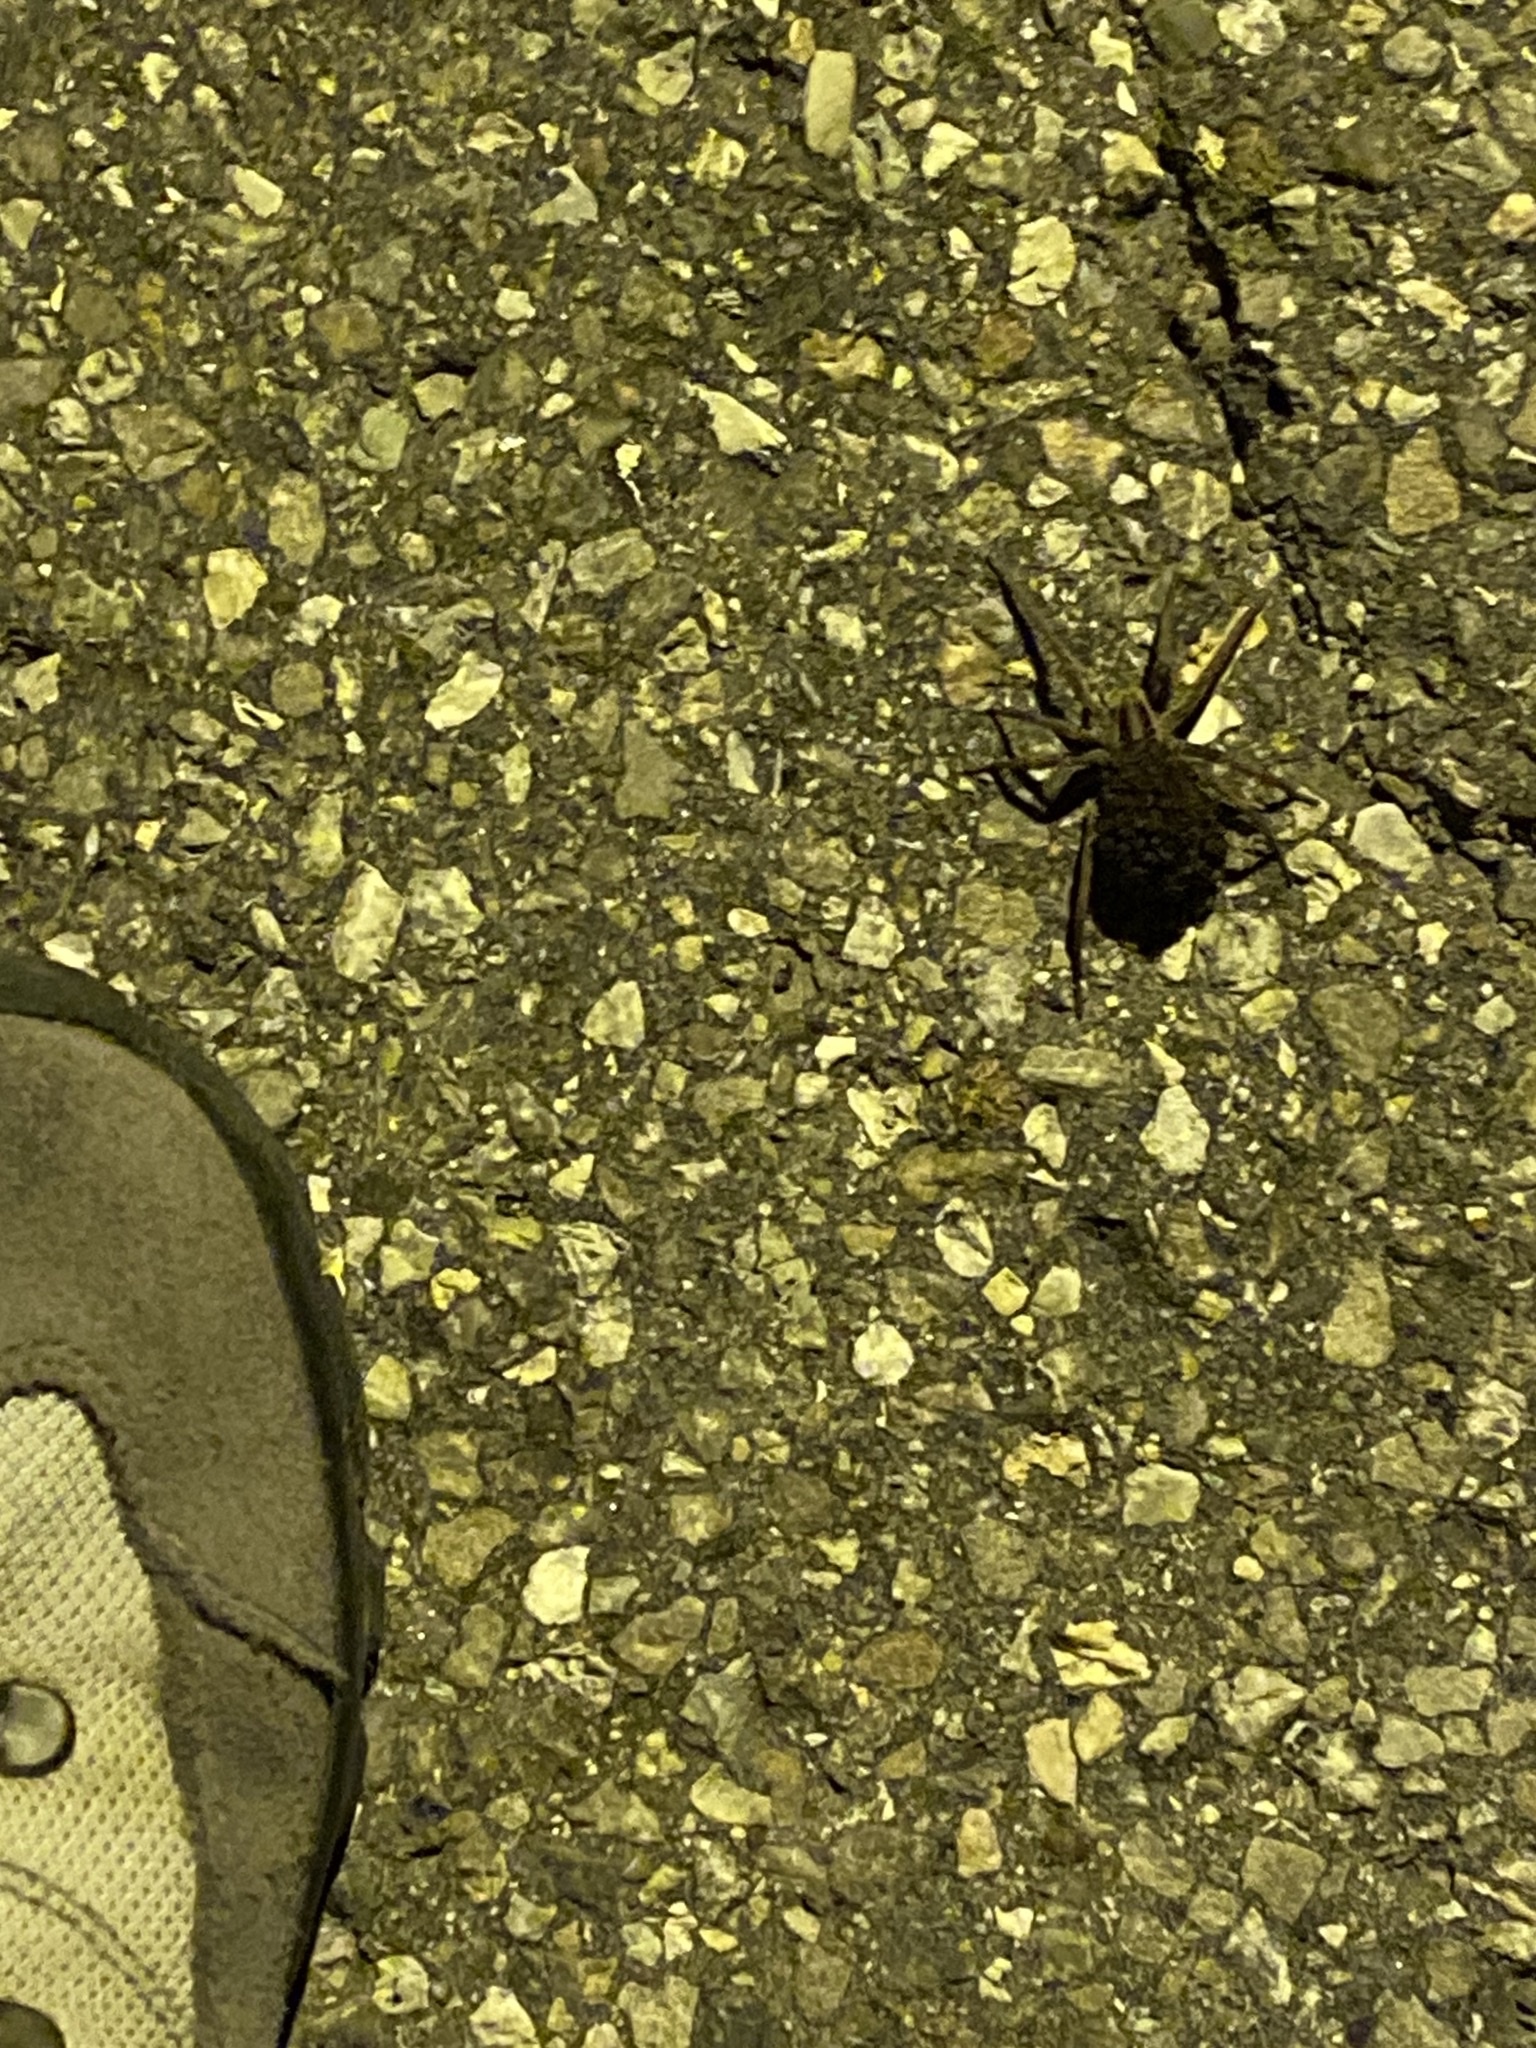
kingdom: Animalia
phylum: Arthropoda
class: Arachnida
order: Araneae
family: Lycosidae
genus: Hogna
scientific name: Hogna radiata
